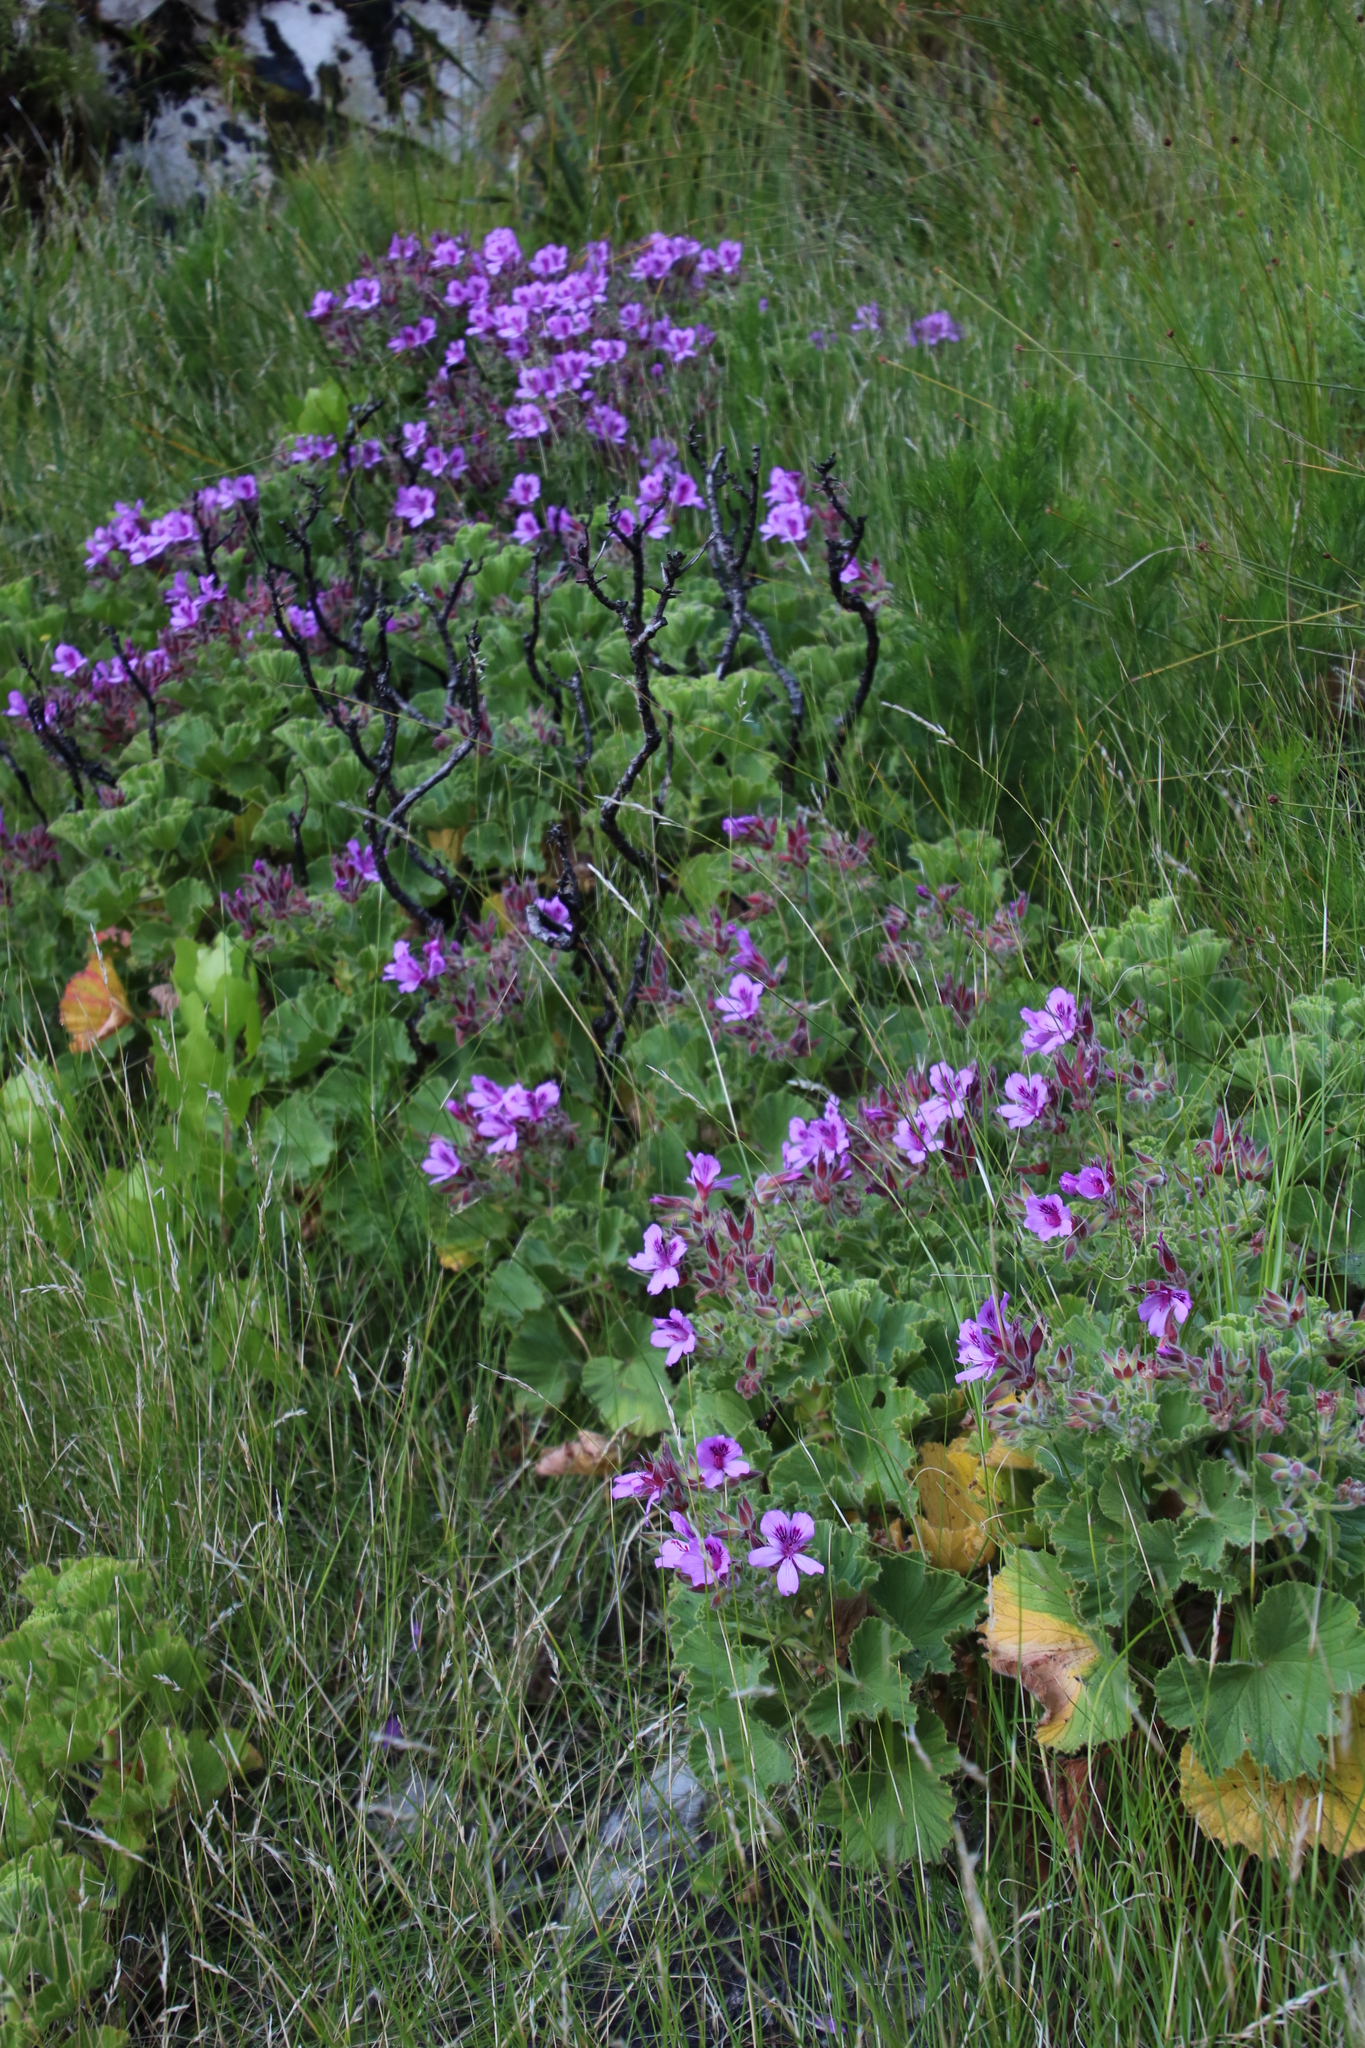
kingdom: Plantae
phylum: Tracheophyta
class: Magnoliopsida
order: Geraniales
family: Geraniaceae
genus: Pelargonium
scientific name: Pelargonium cucullatum
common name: Tree pelargonium
